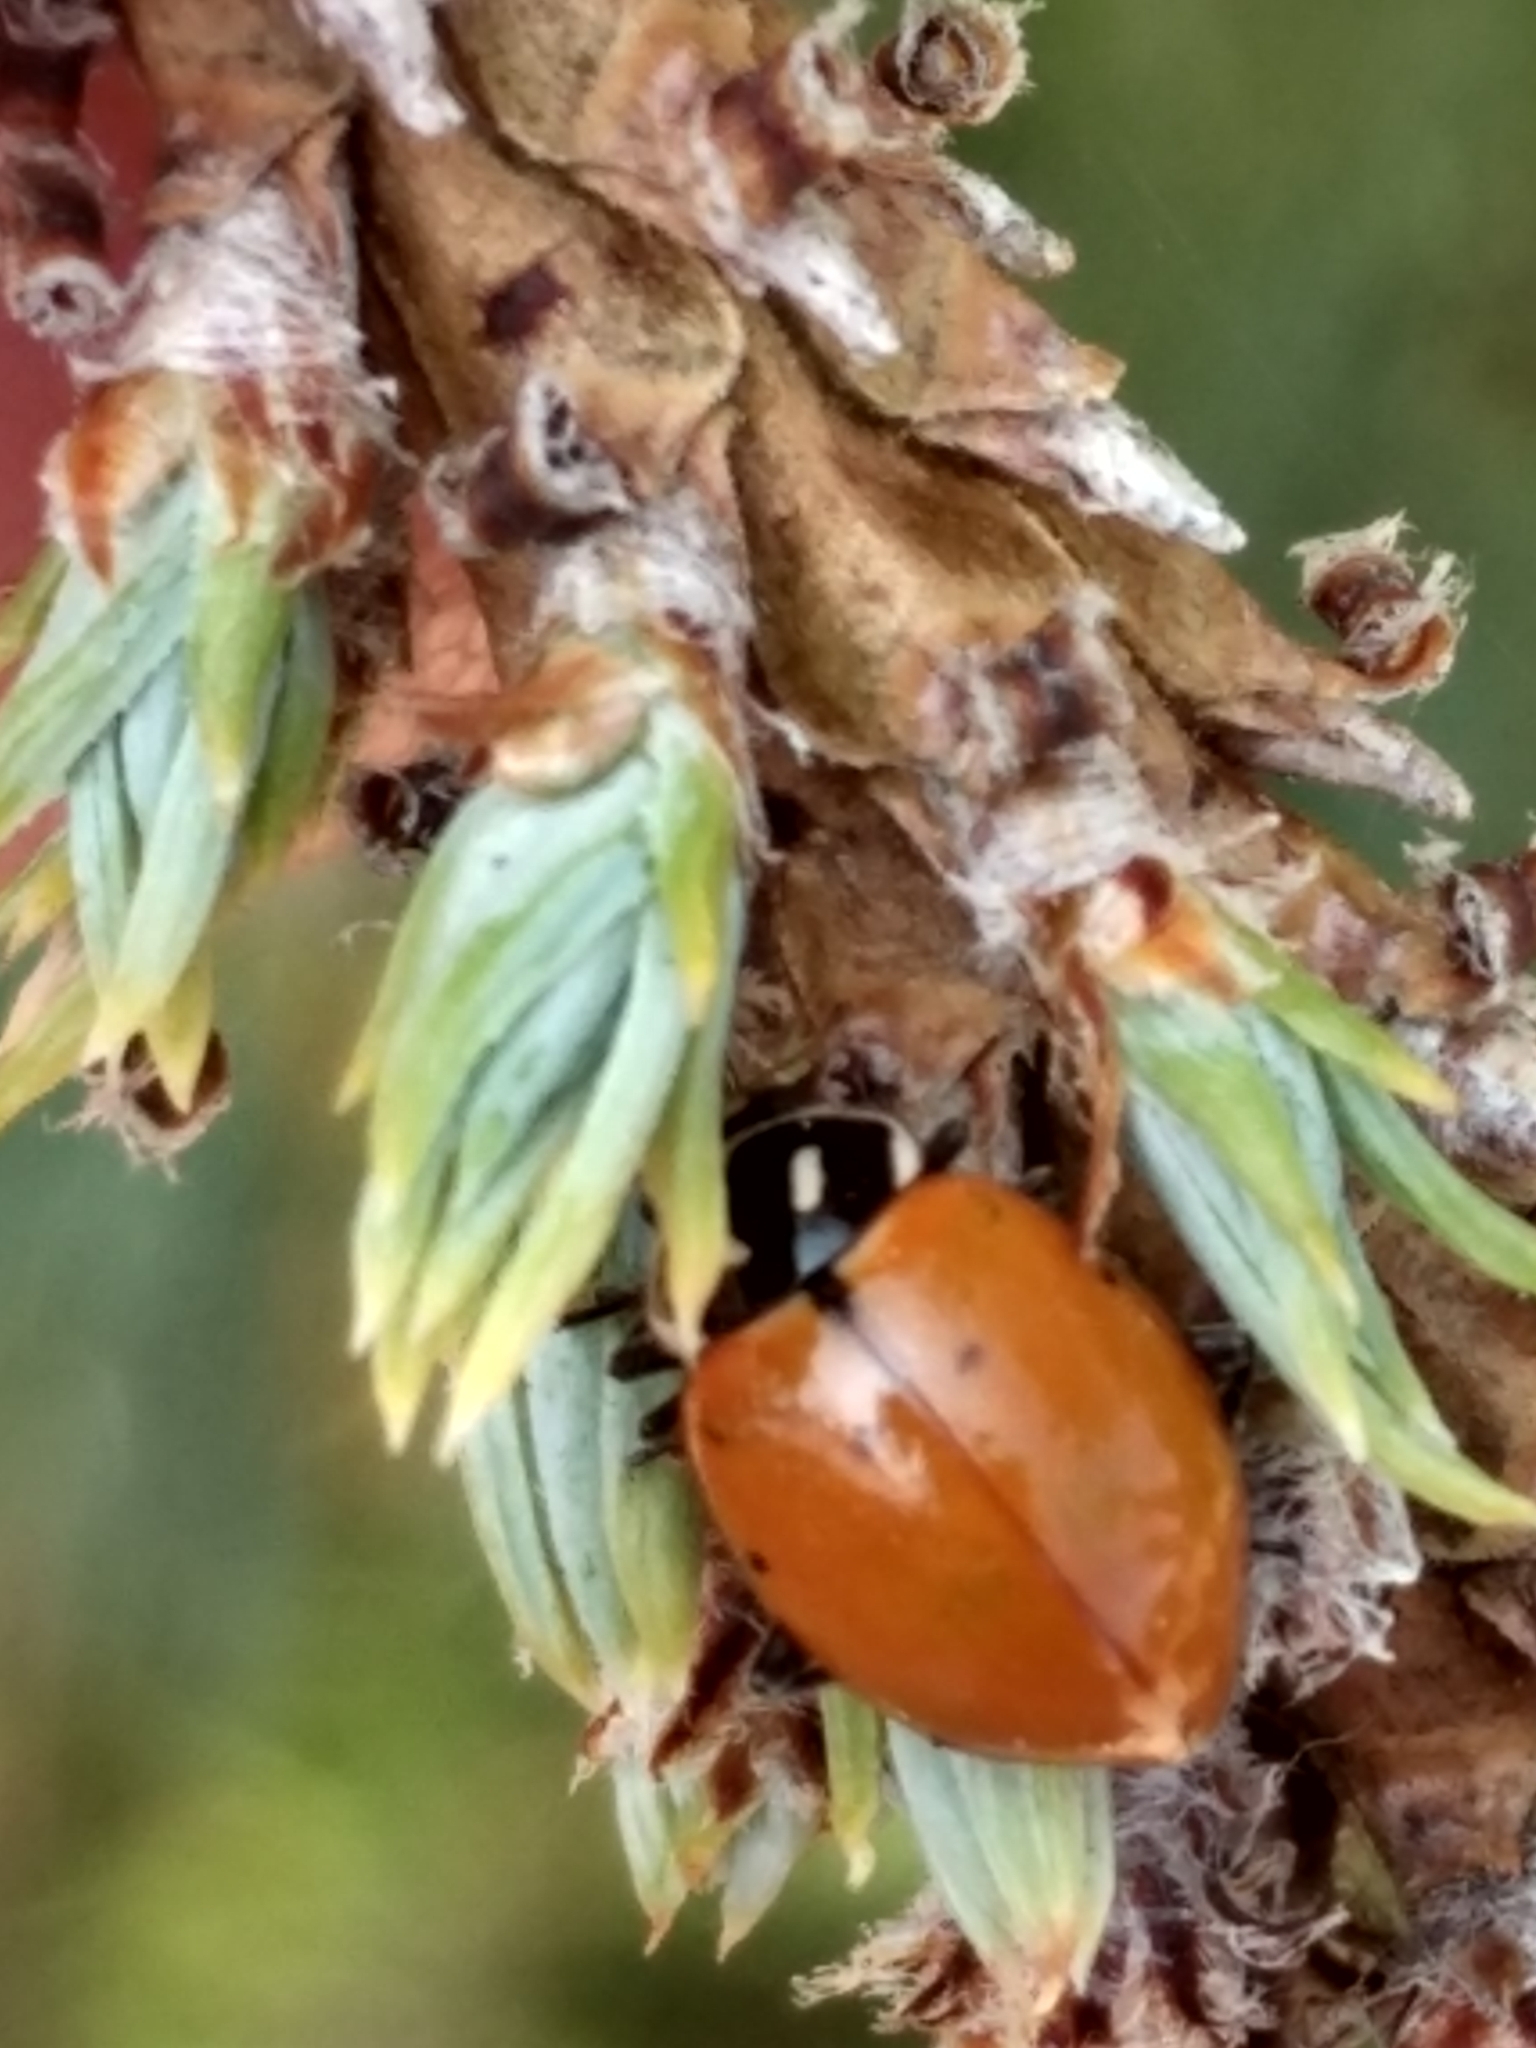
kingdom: Animalia
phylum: Arthropoda
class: Insecta
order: Coleoptera
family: Coccinellidae
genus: Hippodamia
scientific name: Hippodamia convergens
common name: Convergent lady beetle
